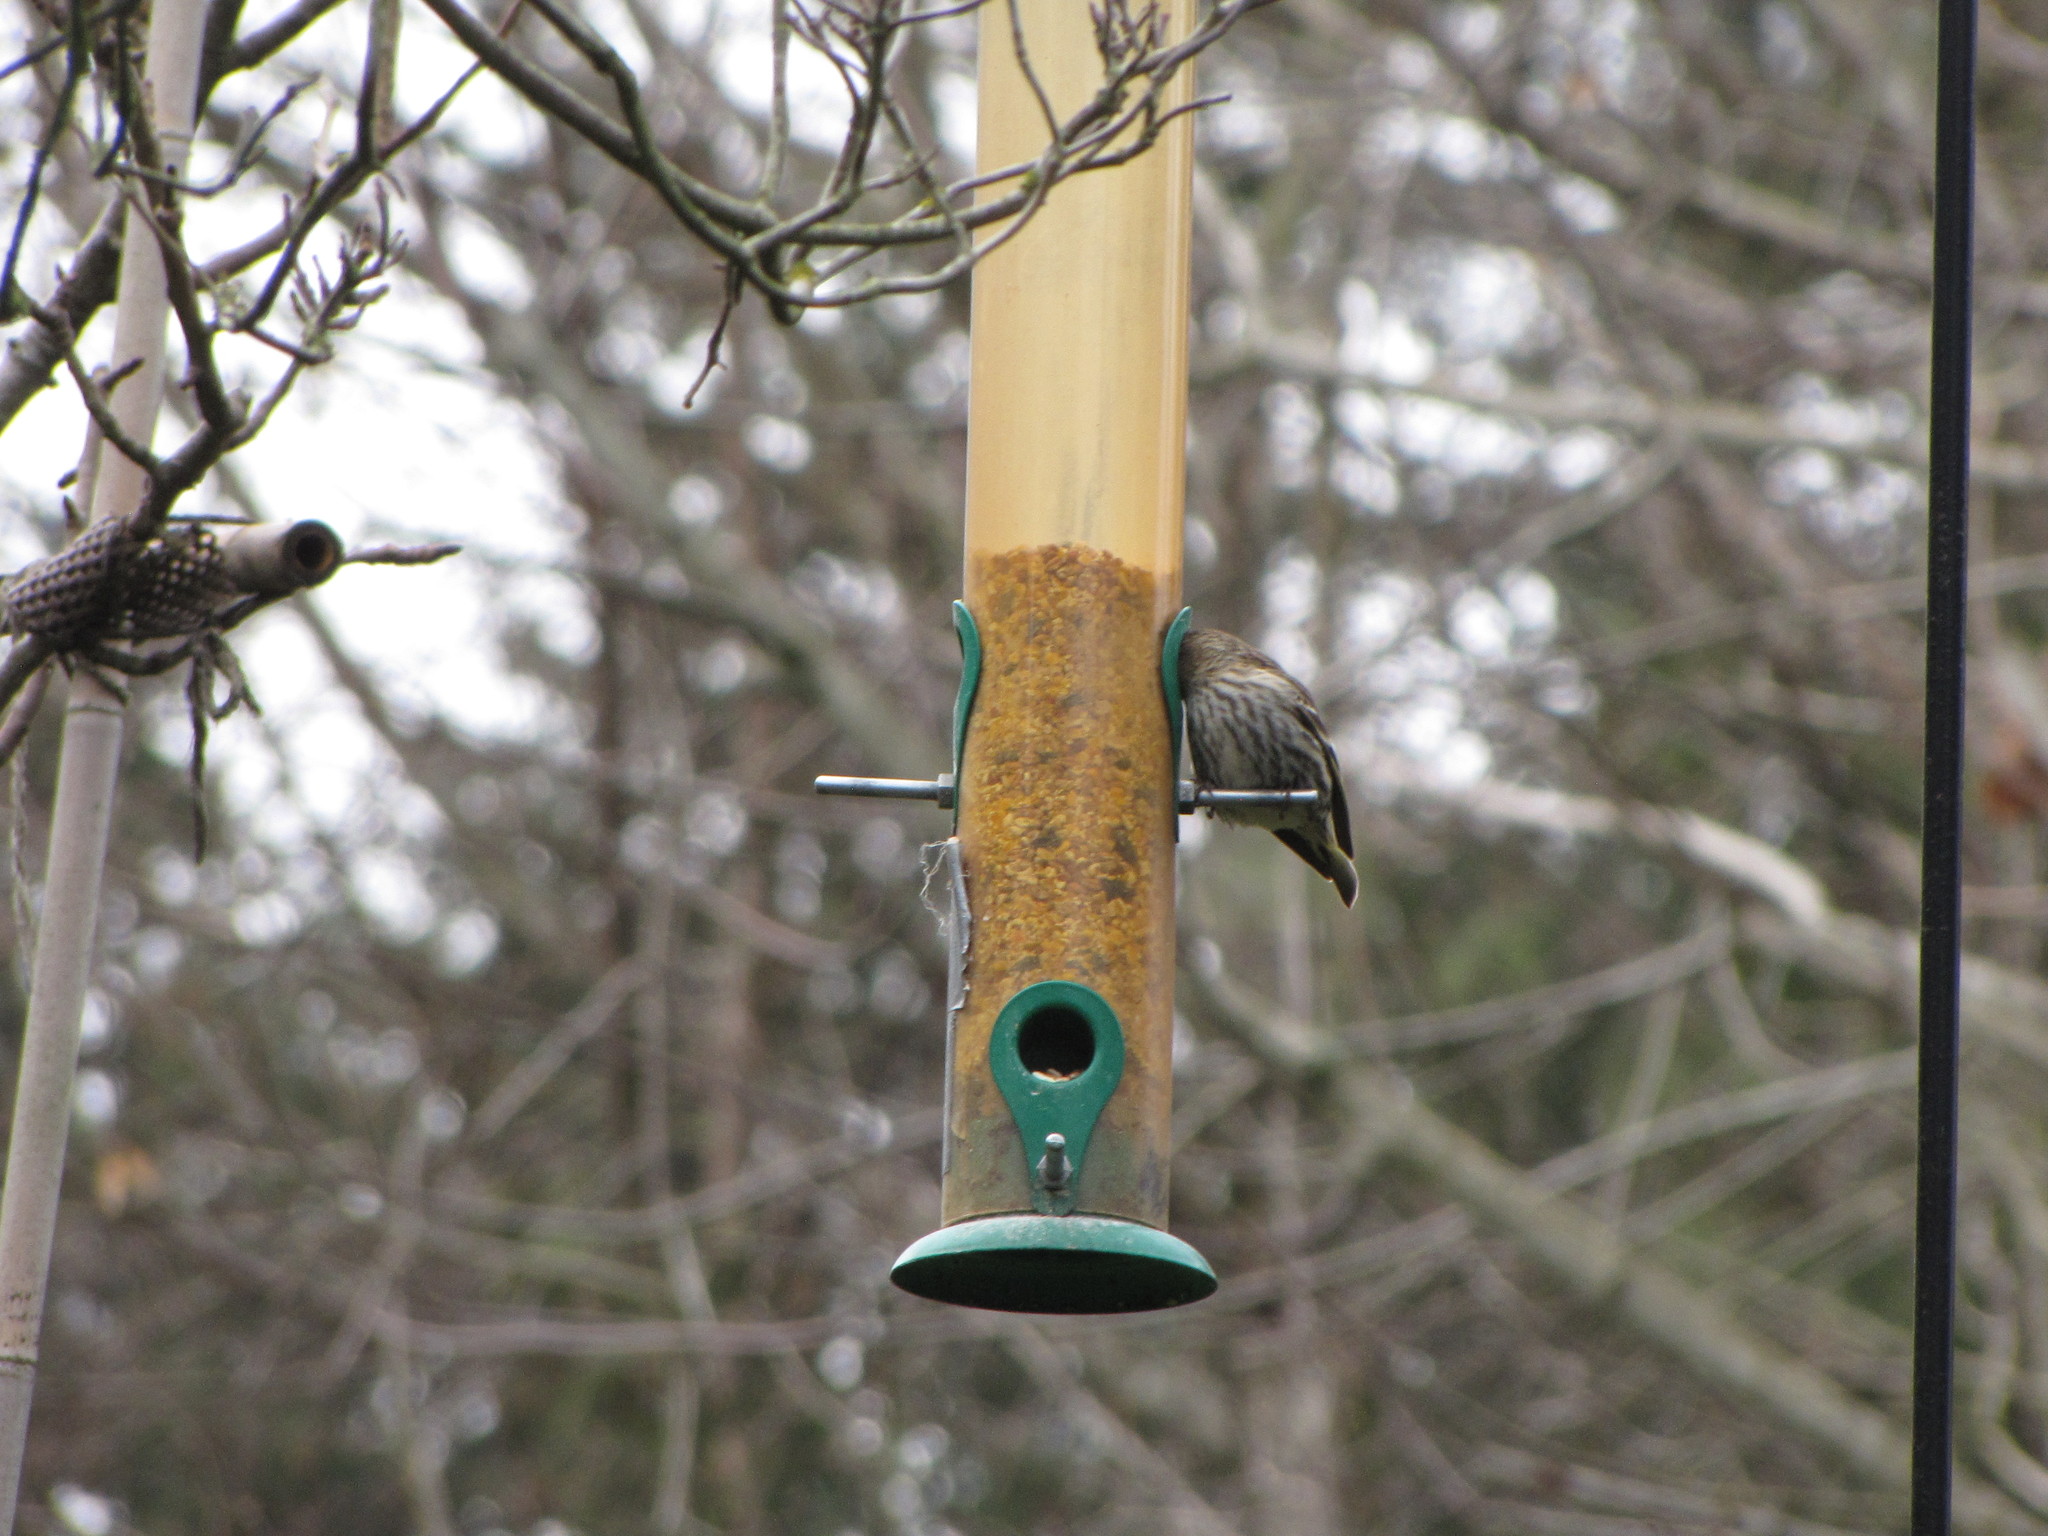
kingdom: Animalia
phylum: Chordata
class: Aves
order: Passeriformes
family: Fringillidae
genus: Spinus
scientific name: Spinus pinus
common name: Pine siskin
